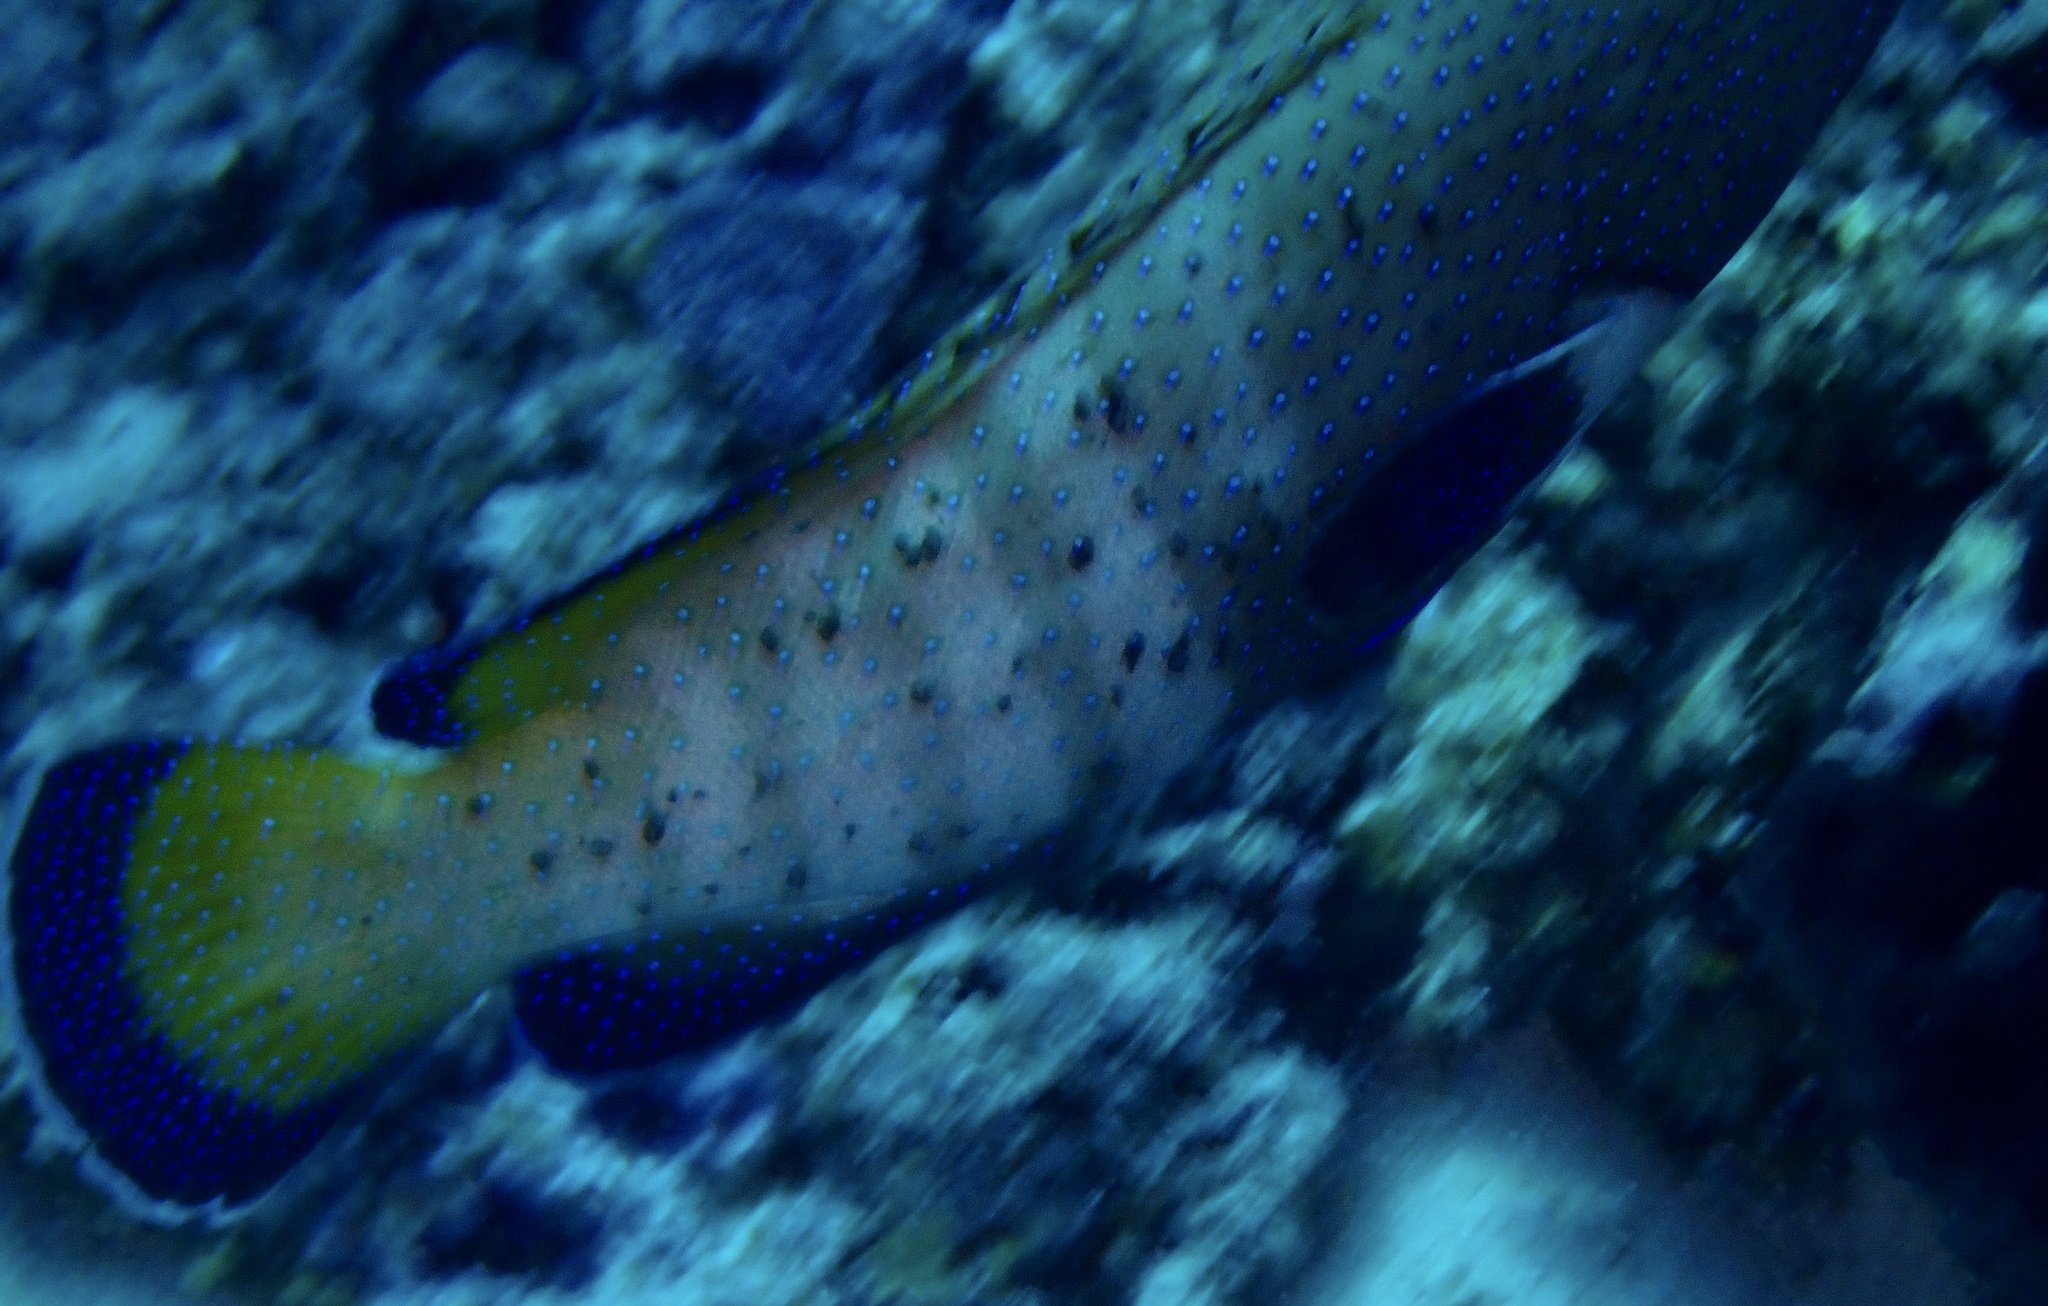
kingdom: Animalia
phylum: Chordata
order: Perciformes
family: Serranidae
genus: Cephalopholis
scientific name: Cephalopholis argus
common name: Peacock grouper
